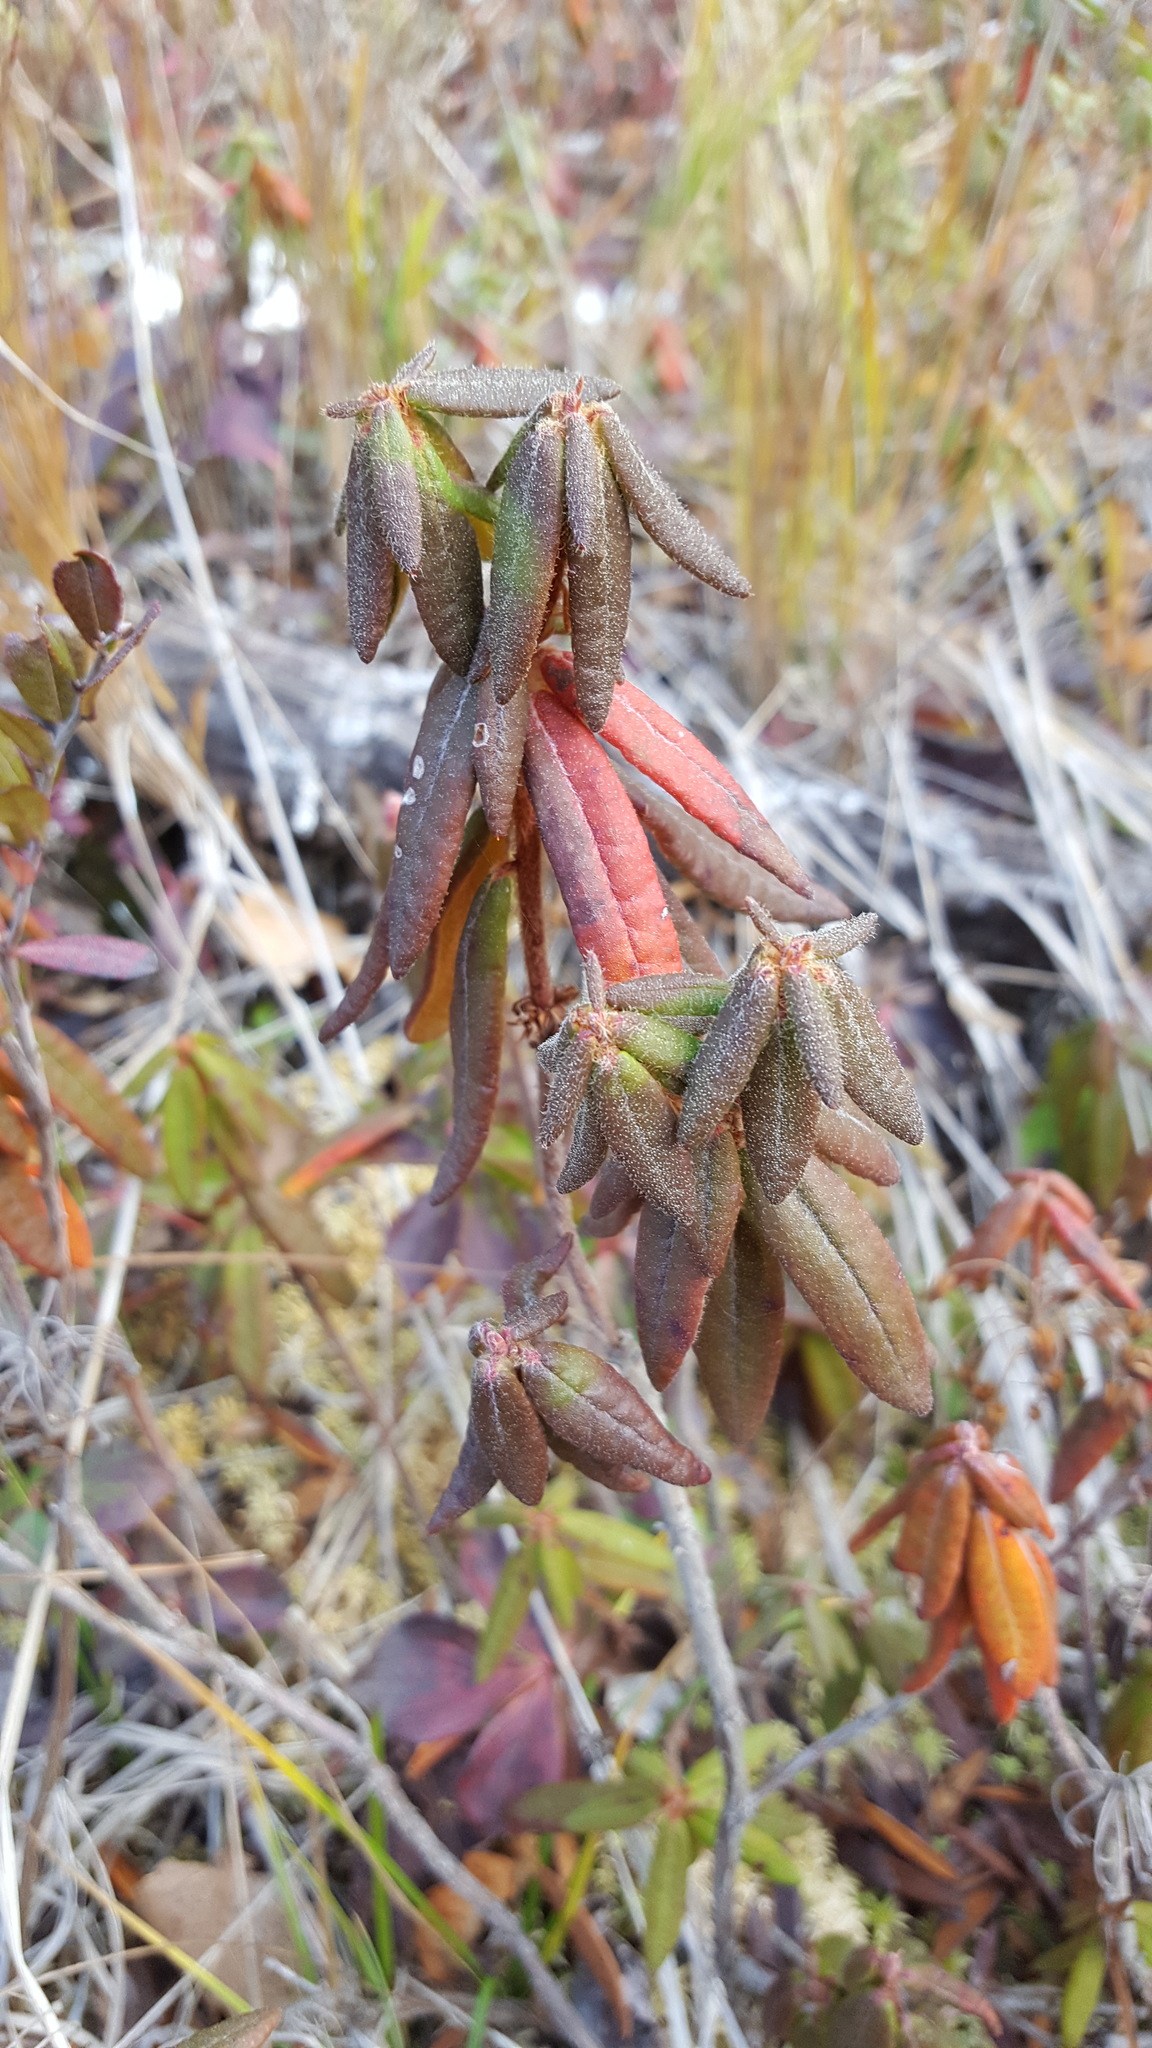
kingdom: Plantae
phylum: Tracheophyta
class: Magnoliopsida
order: Ericales
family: Ericaceae
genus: Rhododendron
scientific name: Rhododendron groenlandicum
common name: Bog labrador tea
